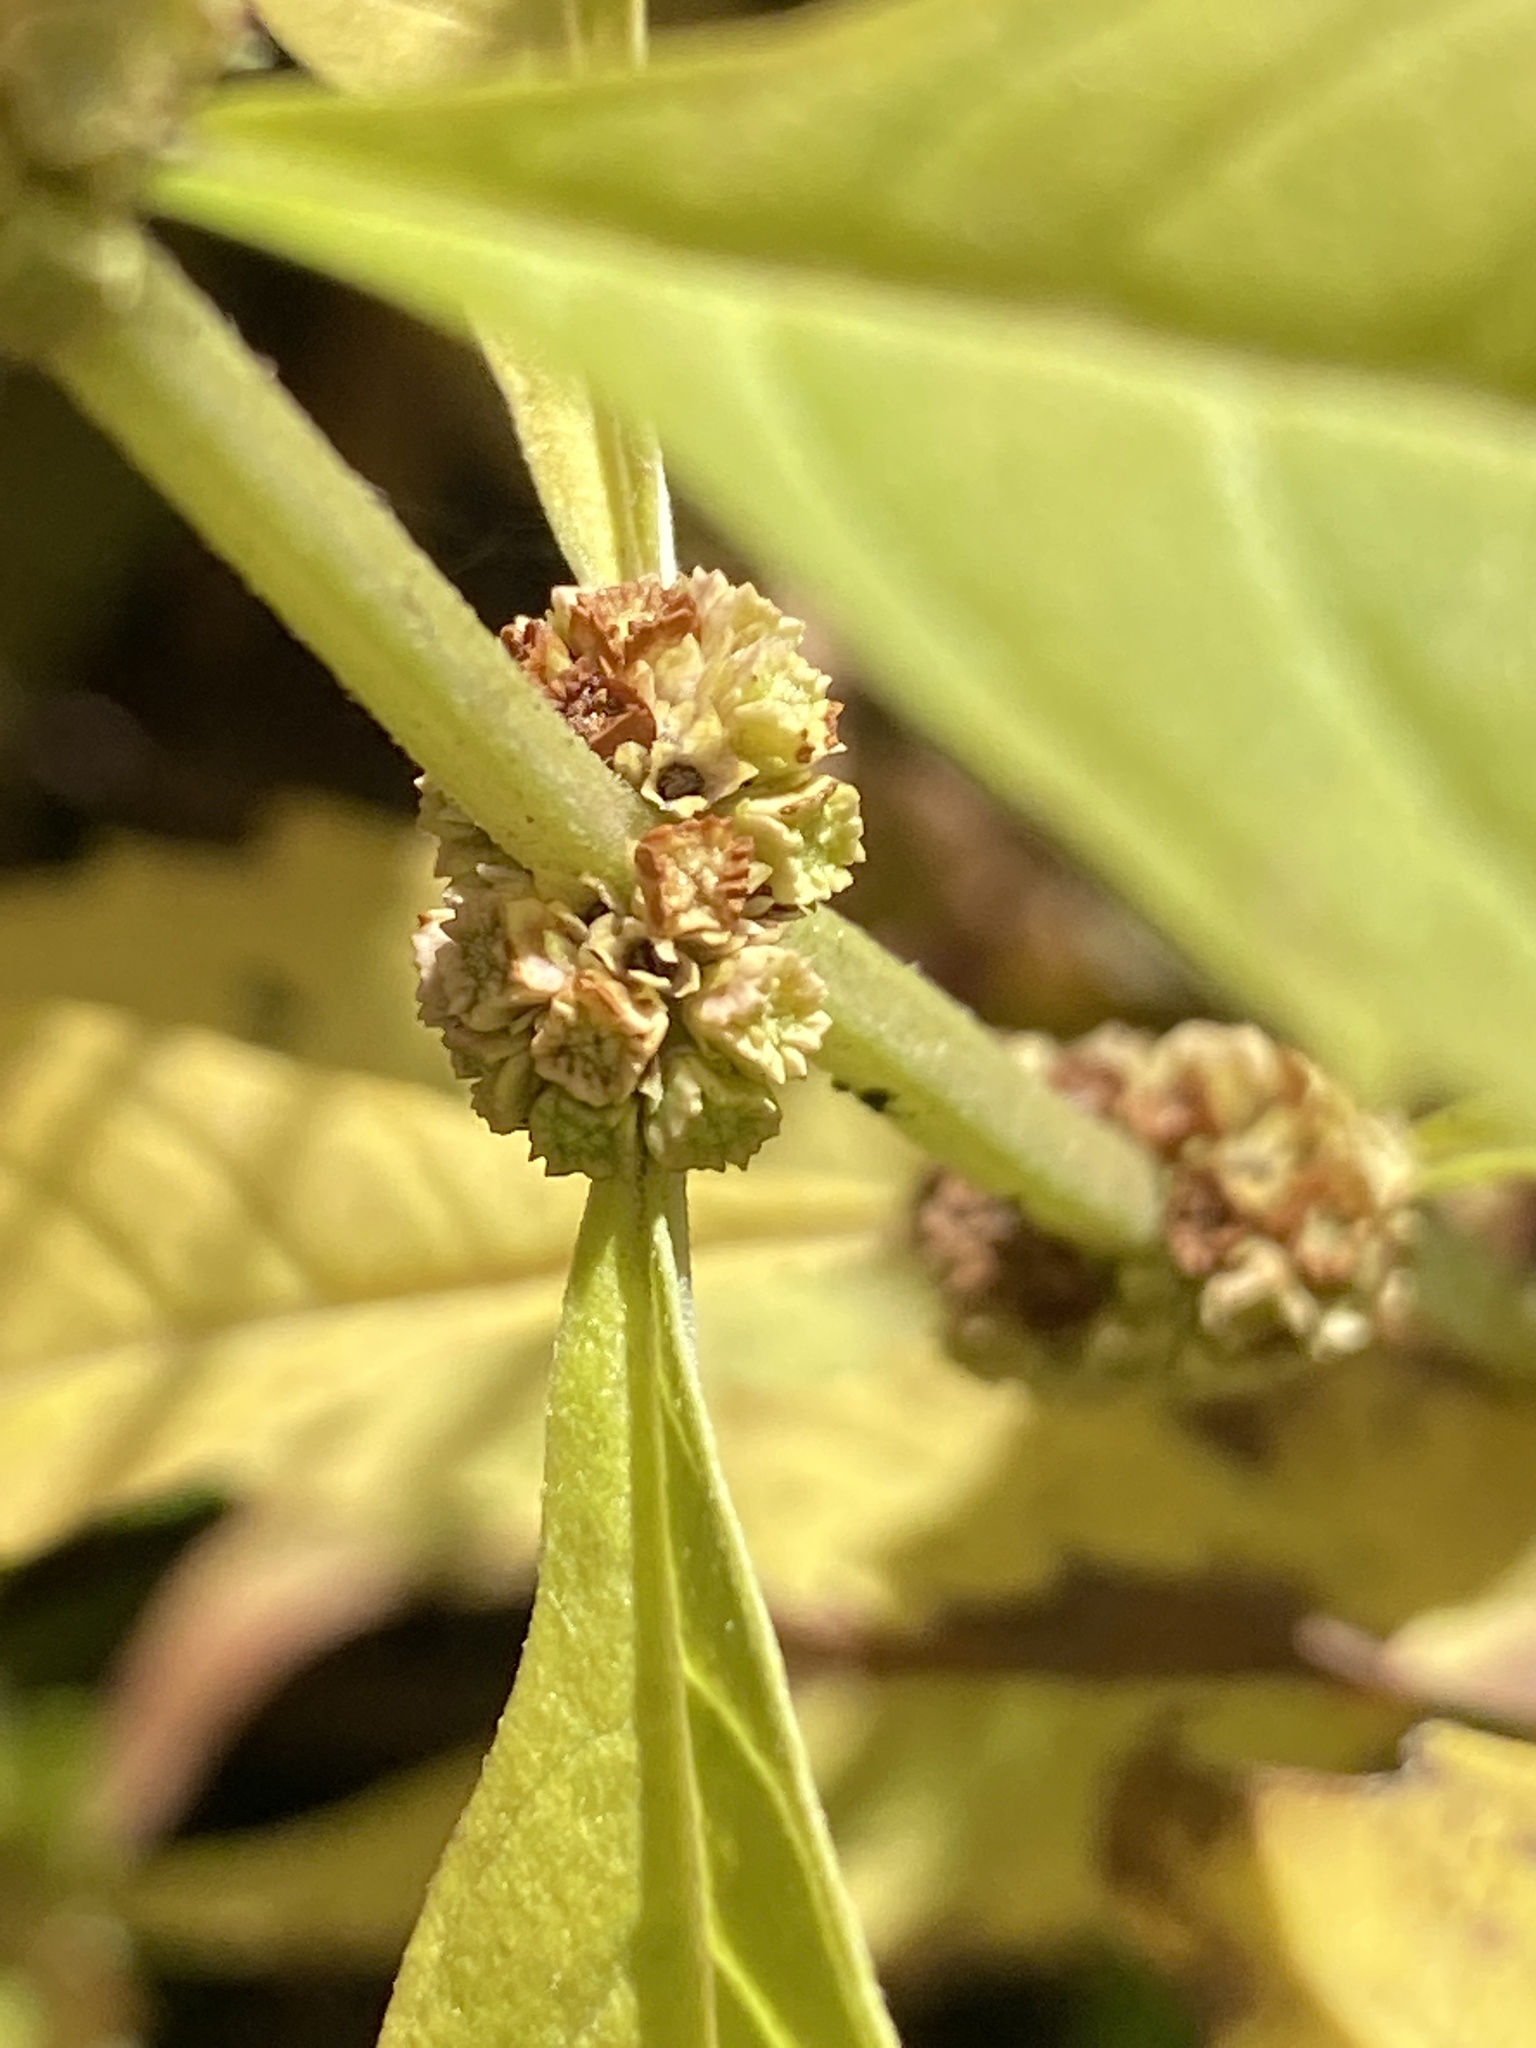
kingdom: Plantae
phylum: Tracheophyta
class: Magnoliopsida
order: Lamiales
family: Lamiaceae
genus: Lycopus
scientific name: Lycopus virginicus
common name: Bugleweed
